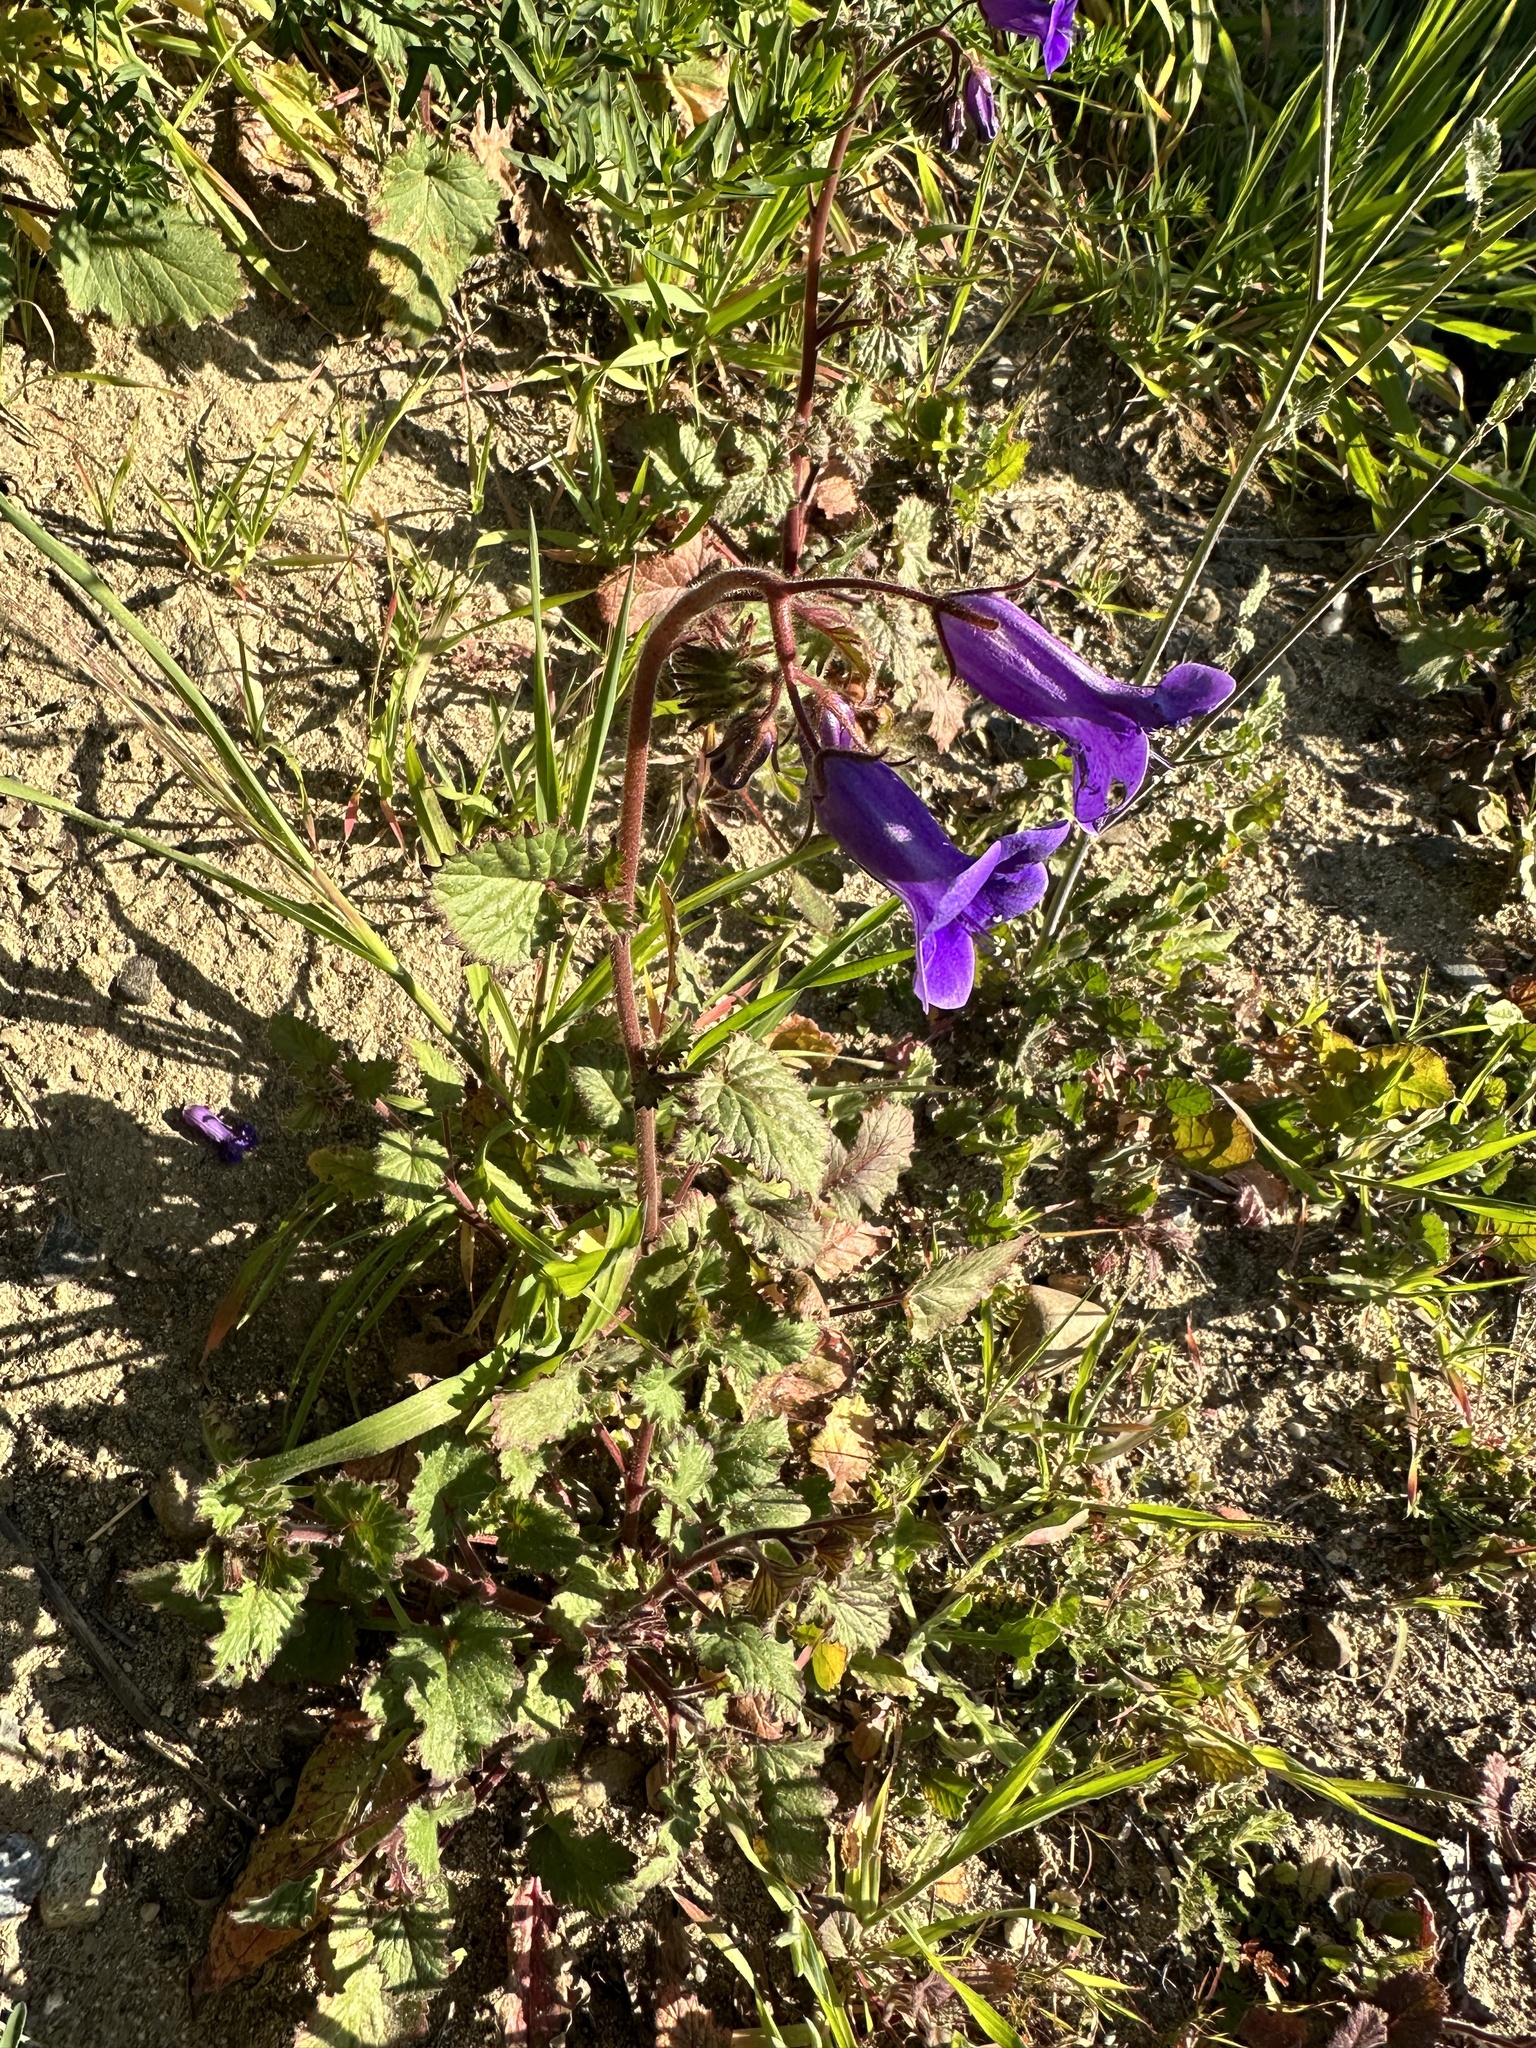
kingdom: Plantae
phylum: Tracheophyta
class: Magnoliopsida
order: Boraginales
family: Hydrophyllaceae
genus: Phacelia
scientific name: Phacelia minor
